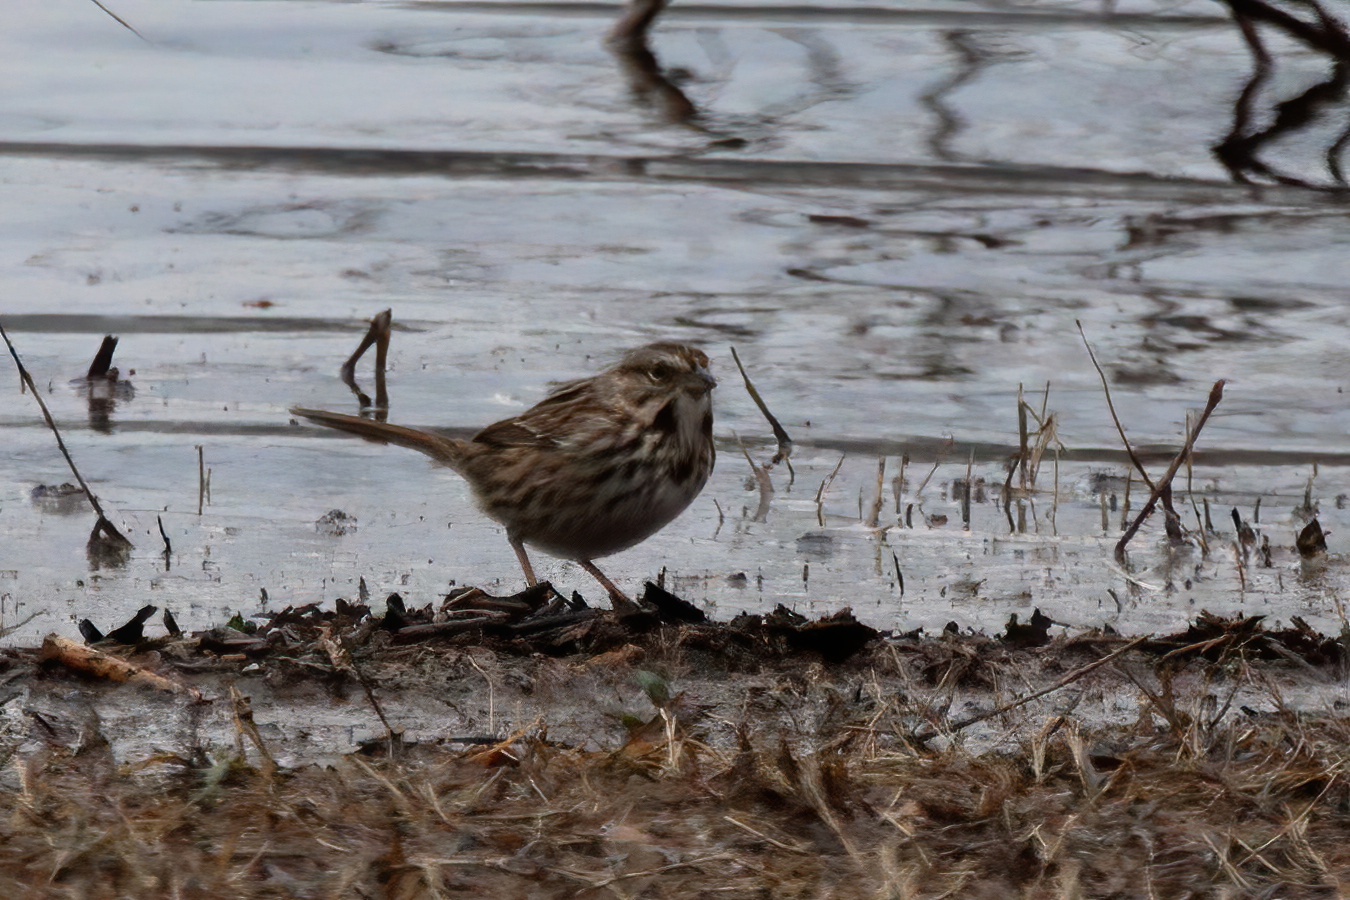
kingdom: Animalia
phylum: Chordata
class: Aves
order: Passeriformes
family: Passerellidae
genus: Melospiza
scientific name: Melospiza melodia
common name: Song sparrow
